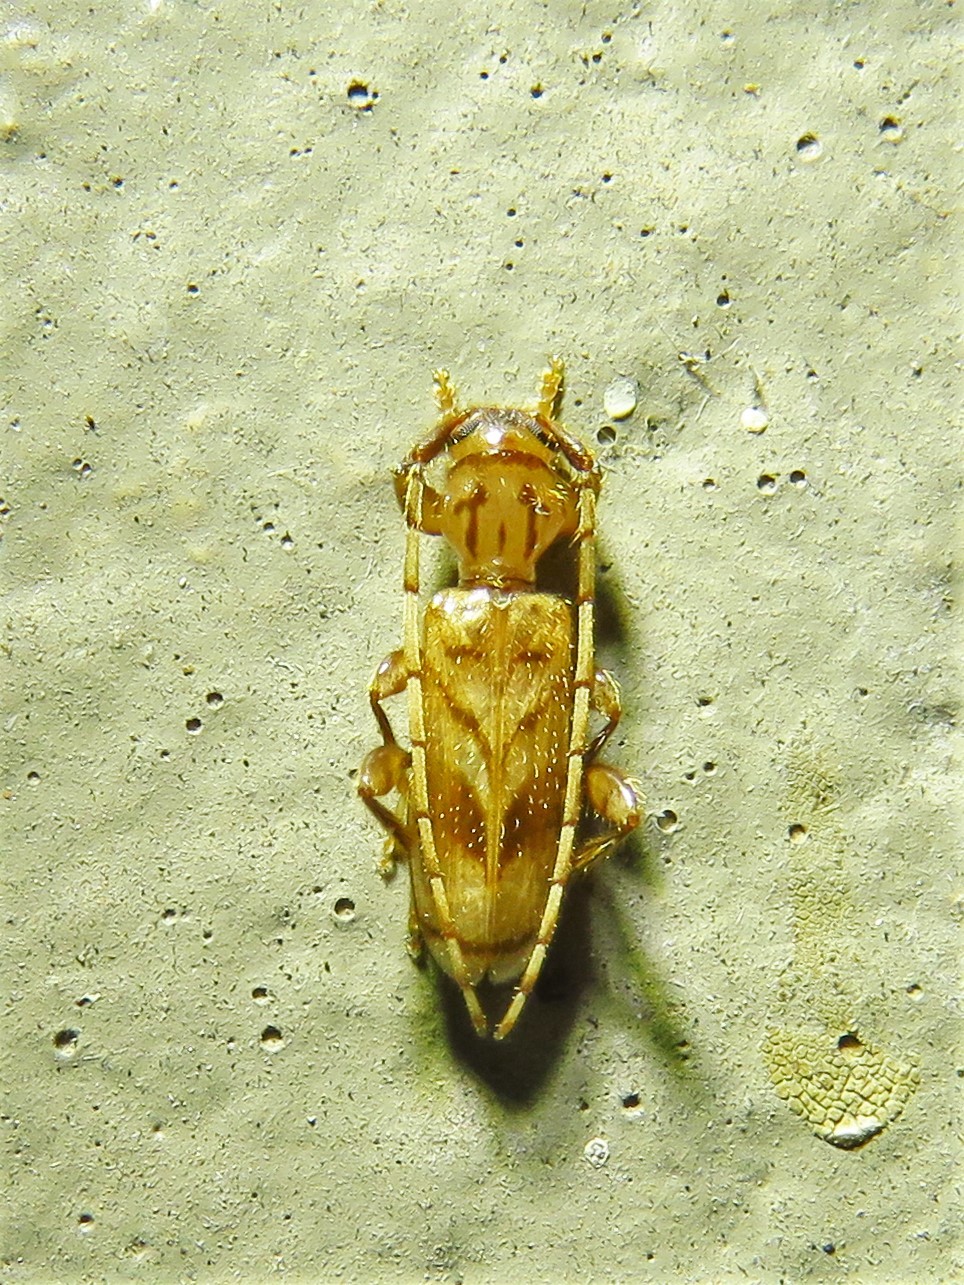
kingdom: Animalia
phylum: Arthropoda
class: Insecta
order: Coleoptera
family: Cerambycidae
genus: Obrium
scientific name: Obrium maculatum
